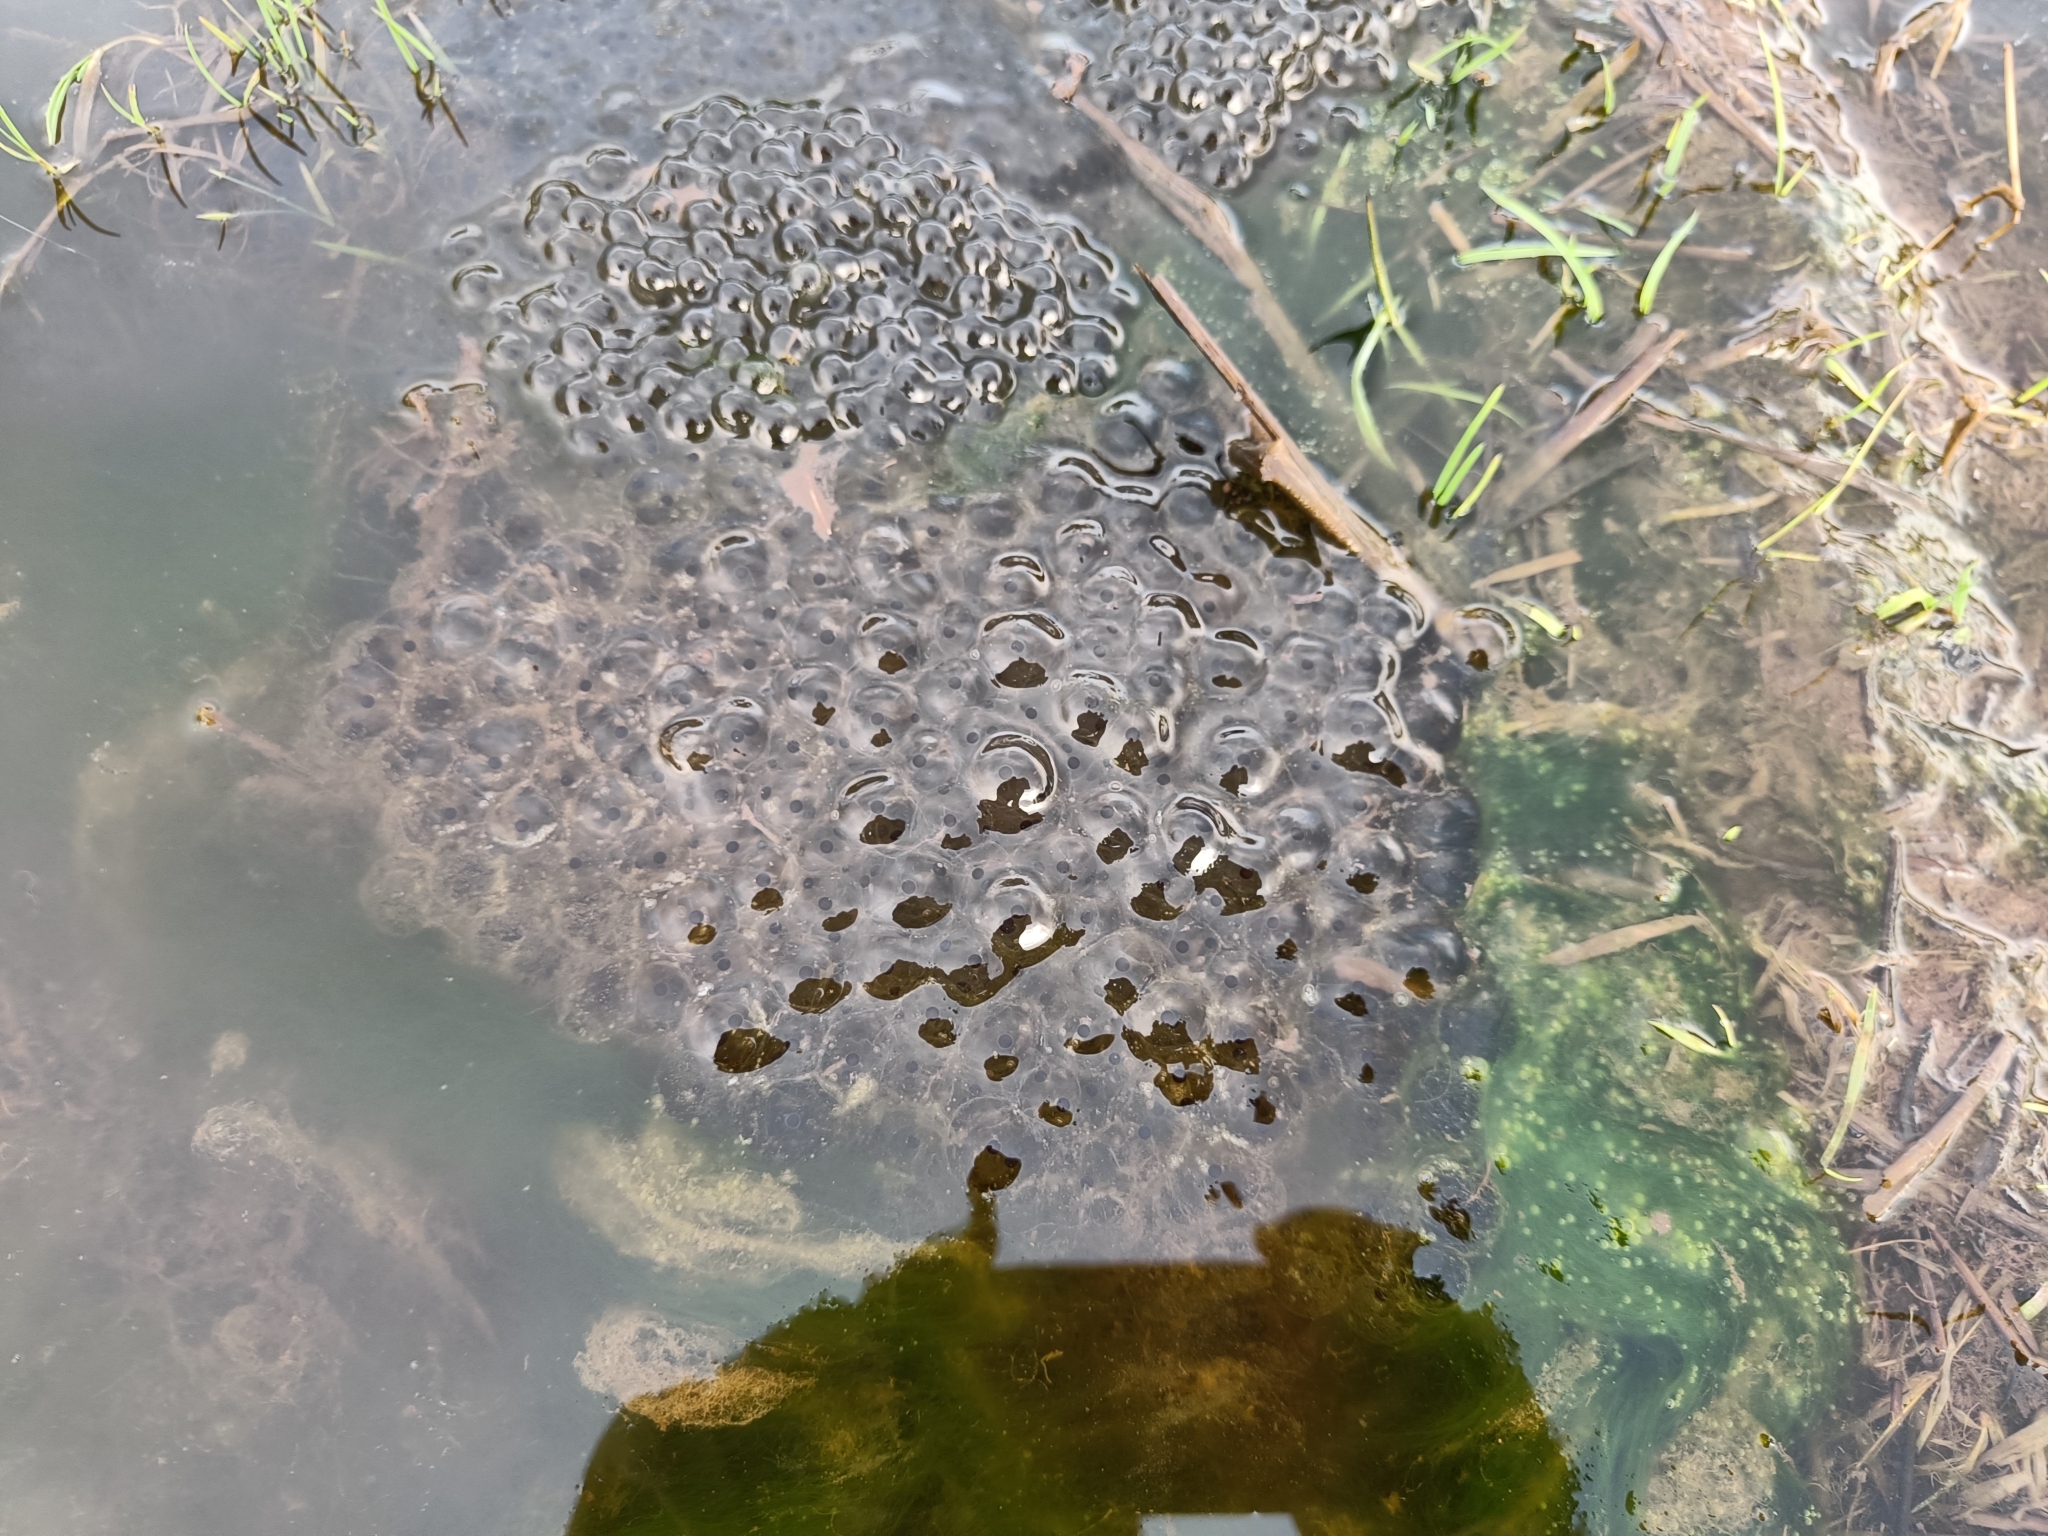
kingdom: Animalia
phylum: Chordata
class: Amphibia
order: Anura
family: Ranidae
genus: Rana
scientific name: Rana temporaria
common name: Common frog
